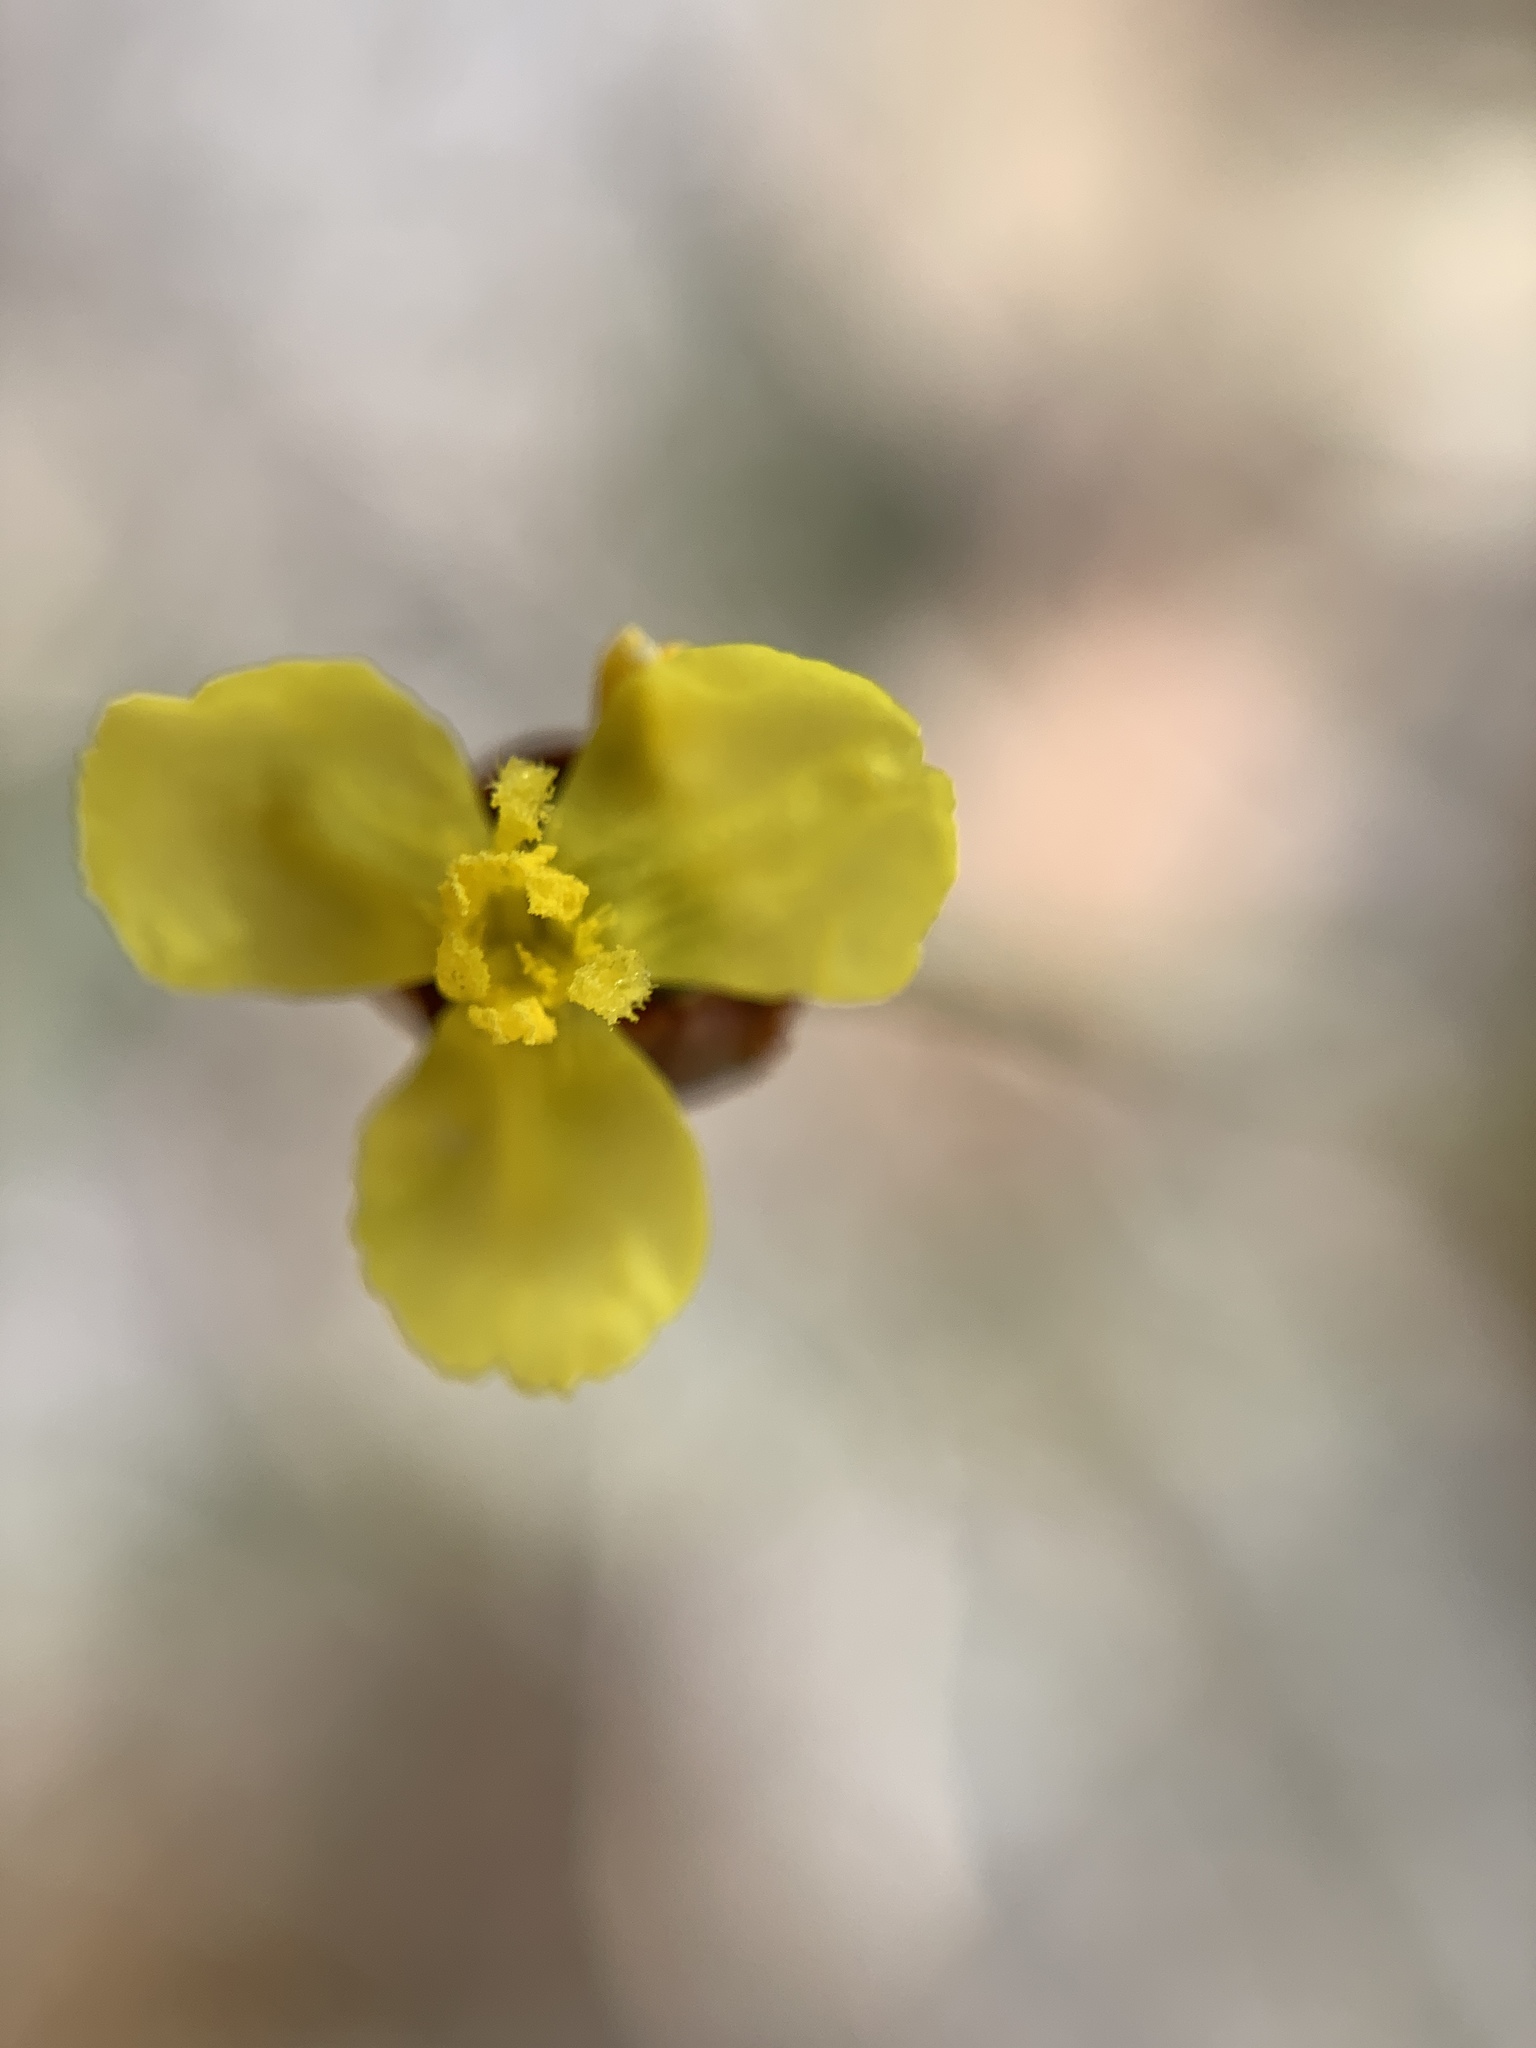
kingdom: Plantae
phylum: Tracheophyta
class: Liliopsida
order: Poales
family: Xyridaceae
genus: Xyris
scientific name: Xyris brevifolia
